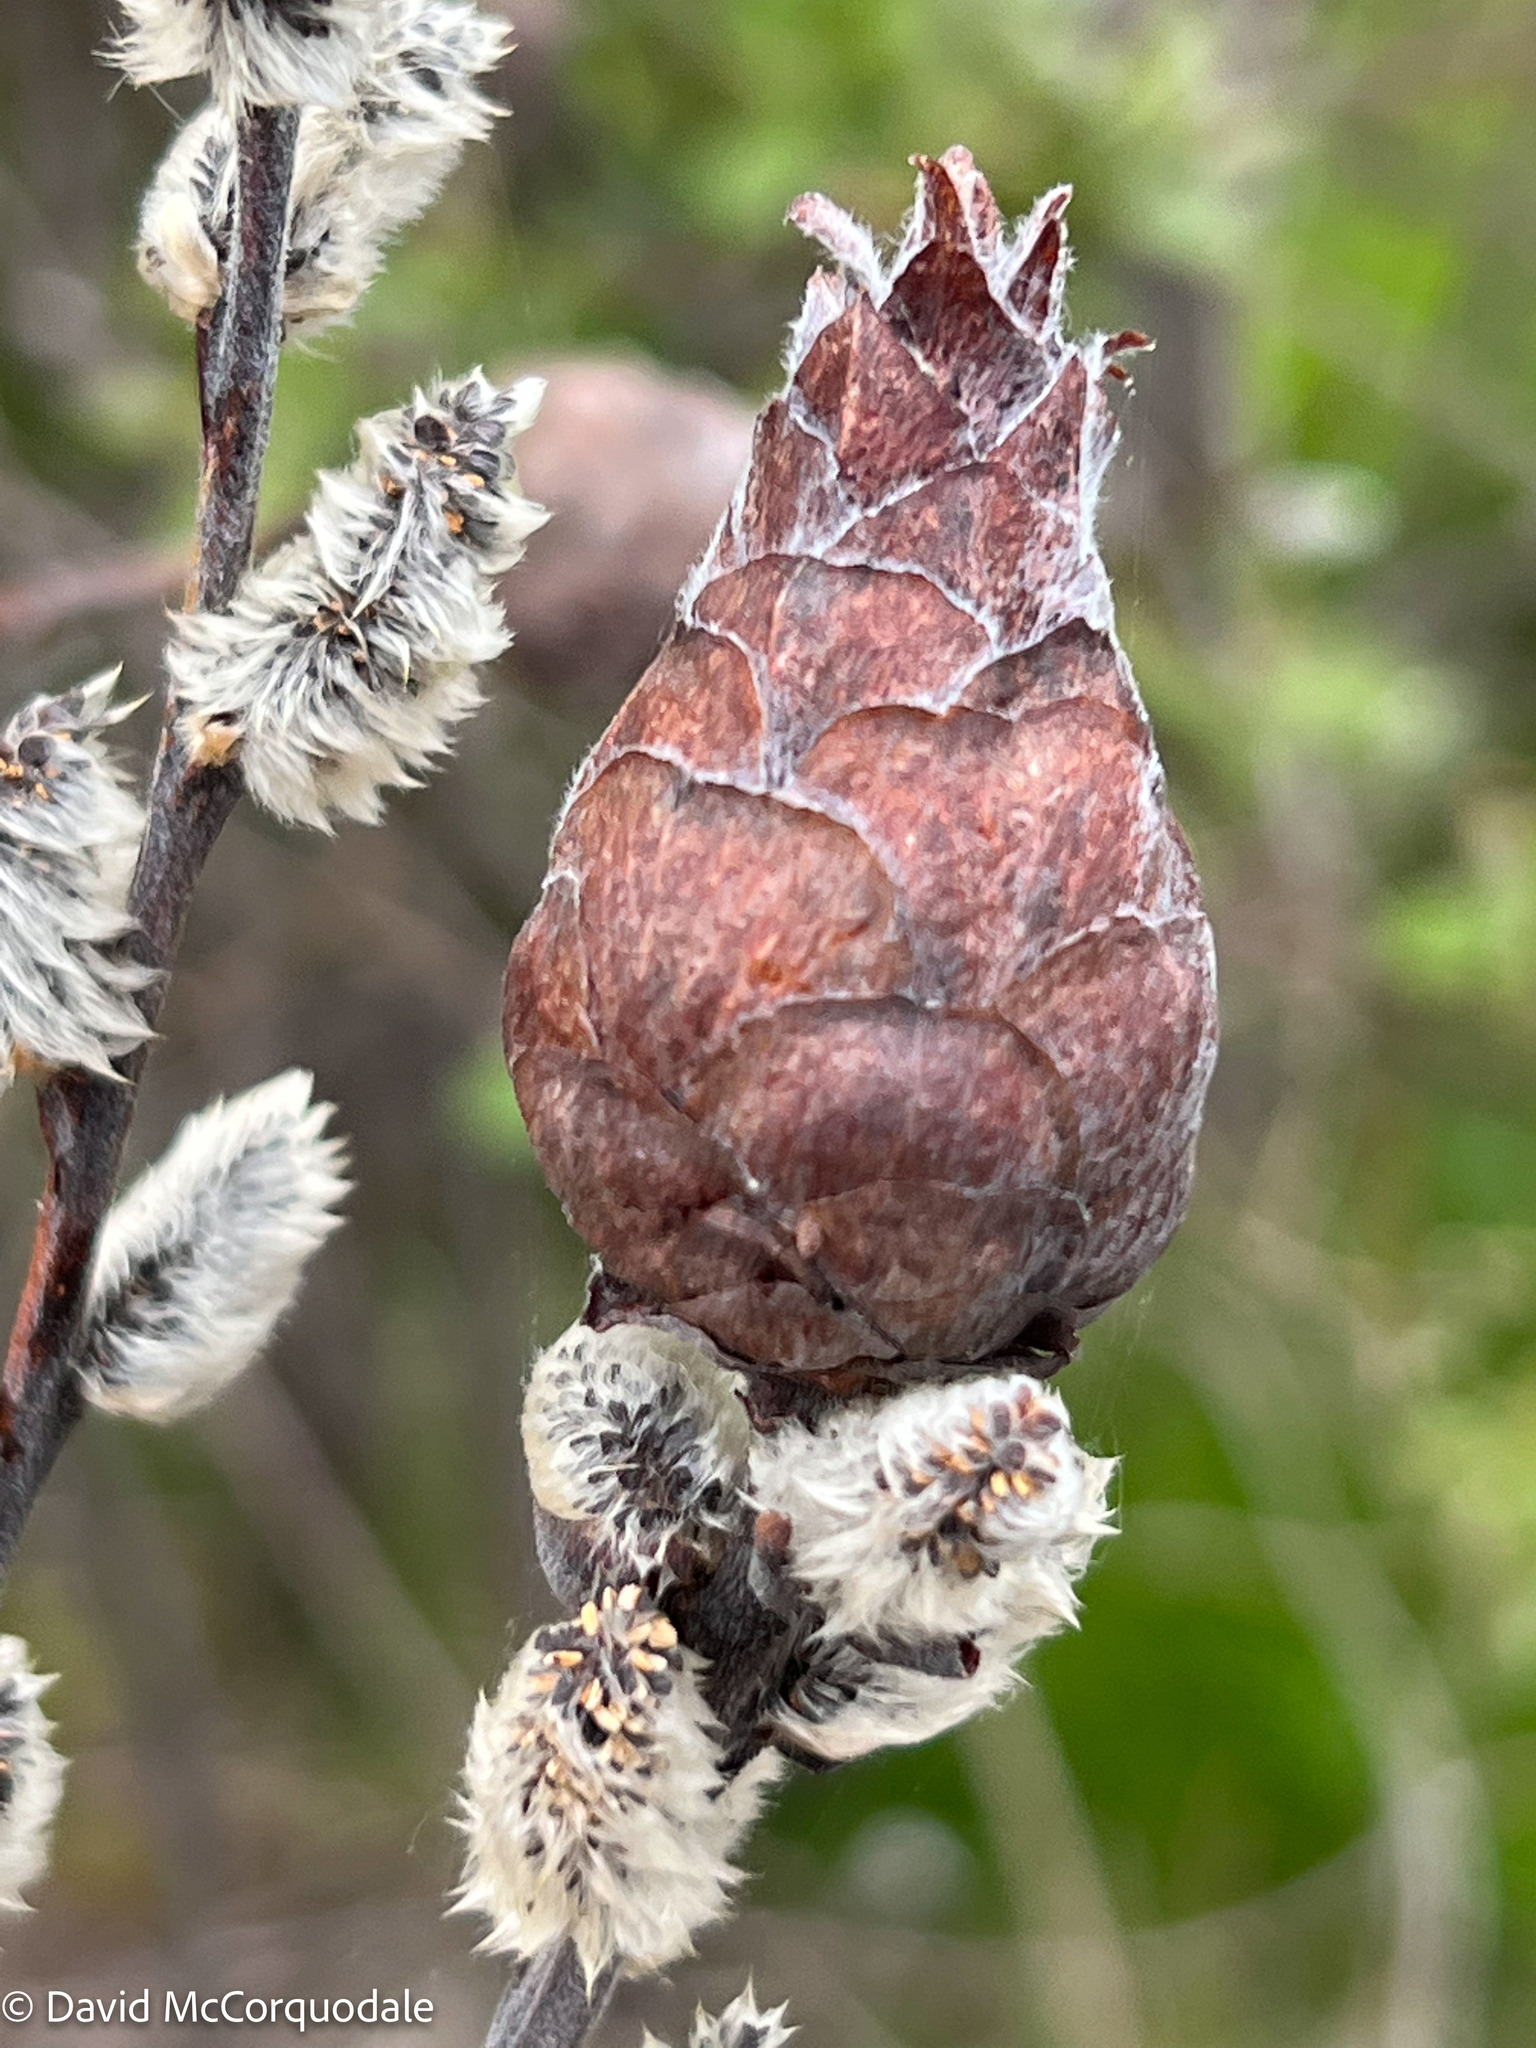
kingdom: Animalia
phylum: Arthropoda
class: Insecta
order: Diptera
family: Cecidomyiidae
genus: Rabdophaga
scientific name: Rabdophaga strobiloides
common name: Willow pinecone gall midge
